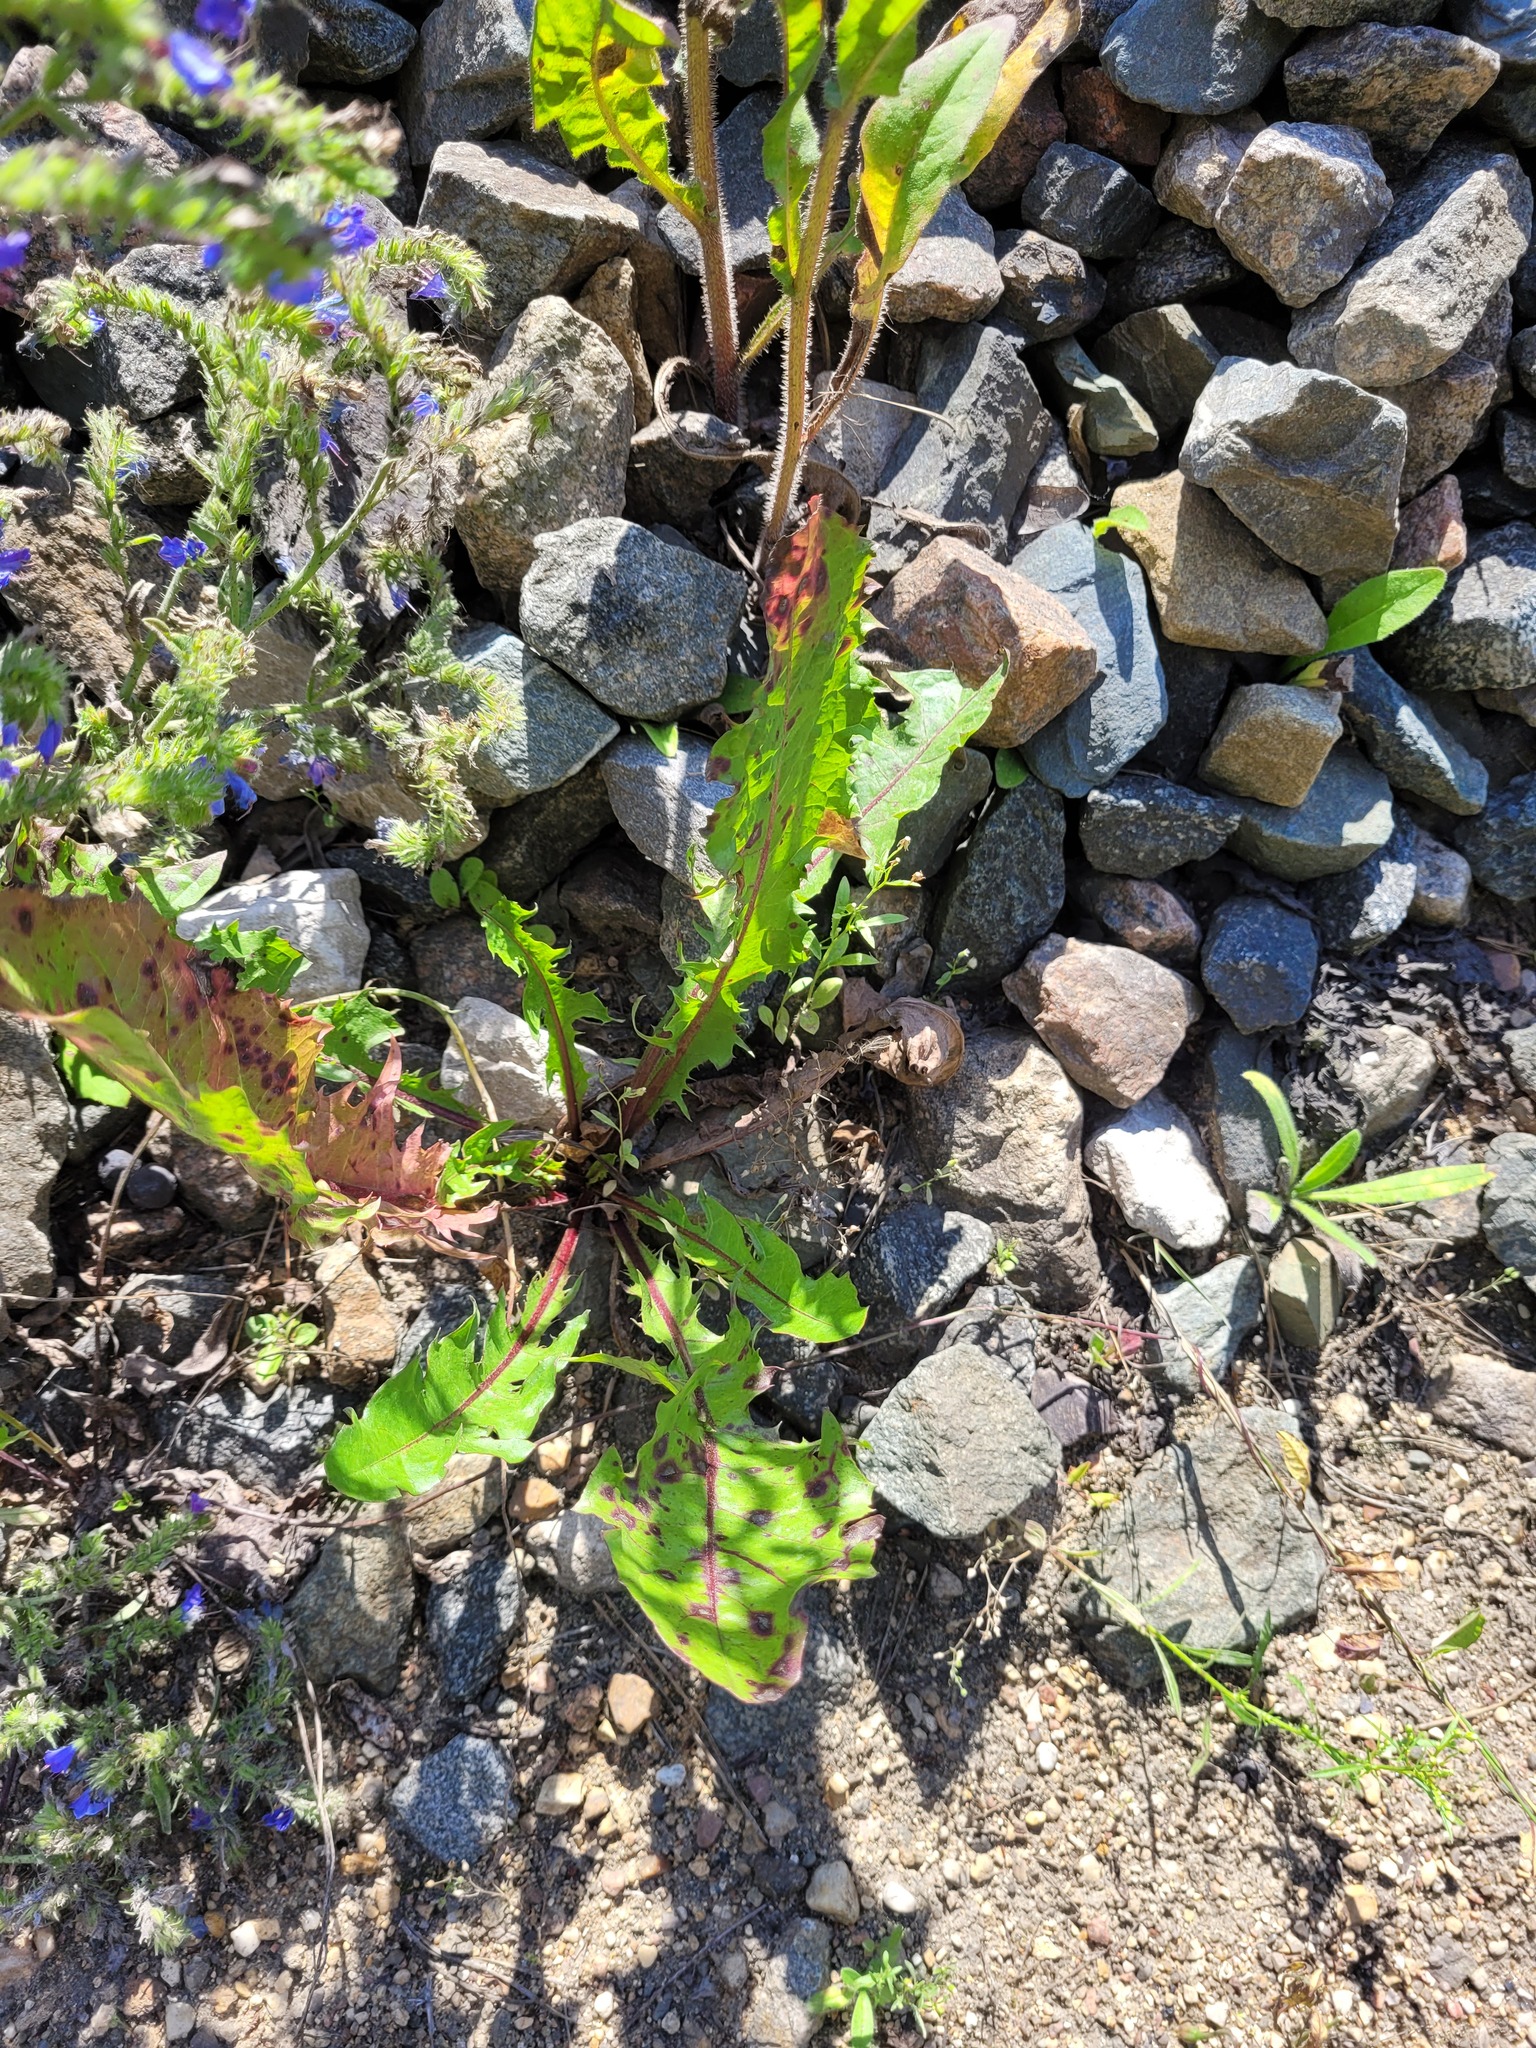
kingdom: Plantae
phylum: Tracheophyta
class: Magnoliopsida
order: Asterales
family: Asteraceae
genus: Taraxacum
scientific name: Taraxacum officinale
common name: Common dandelion
